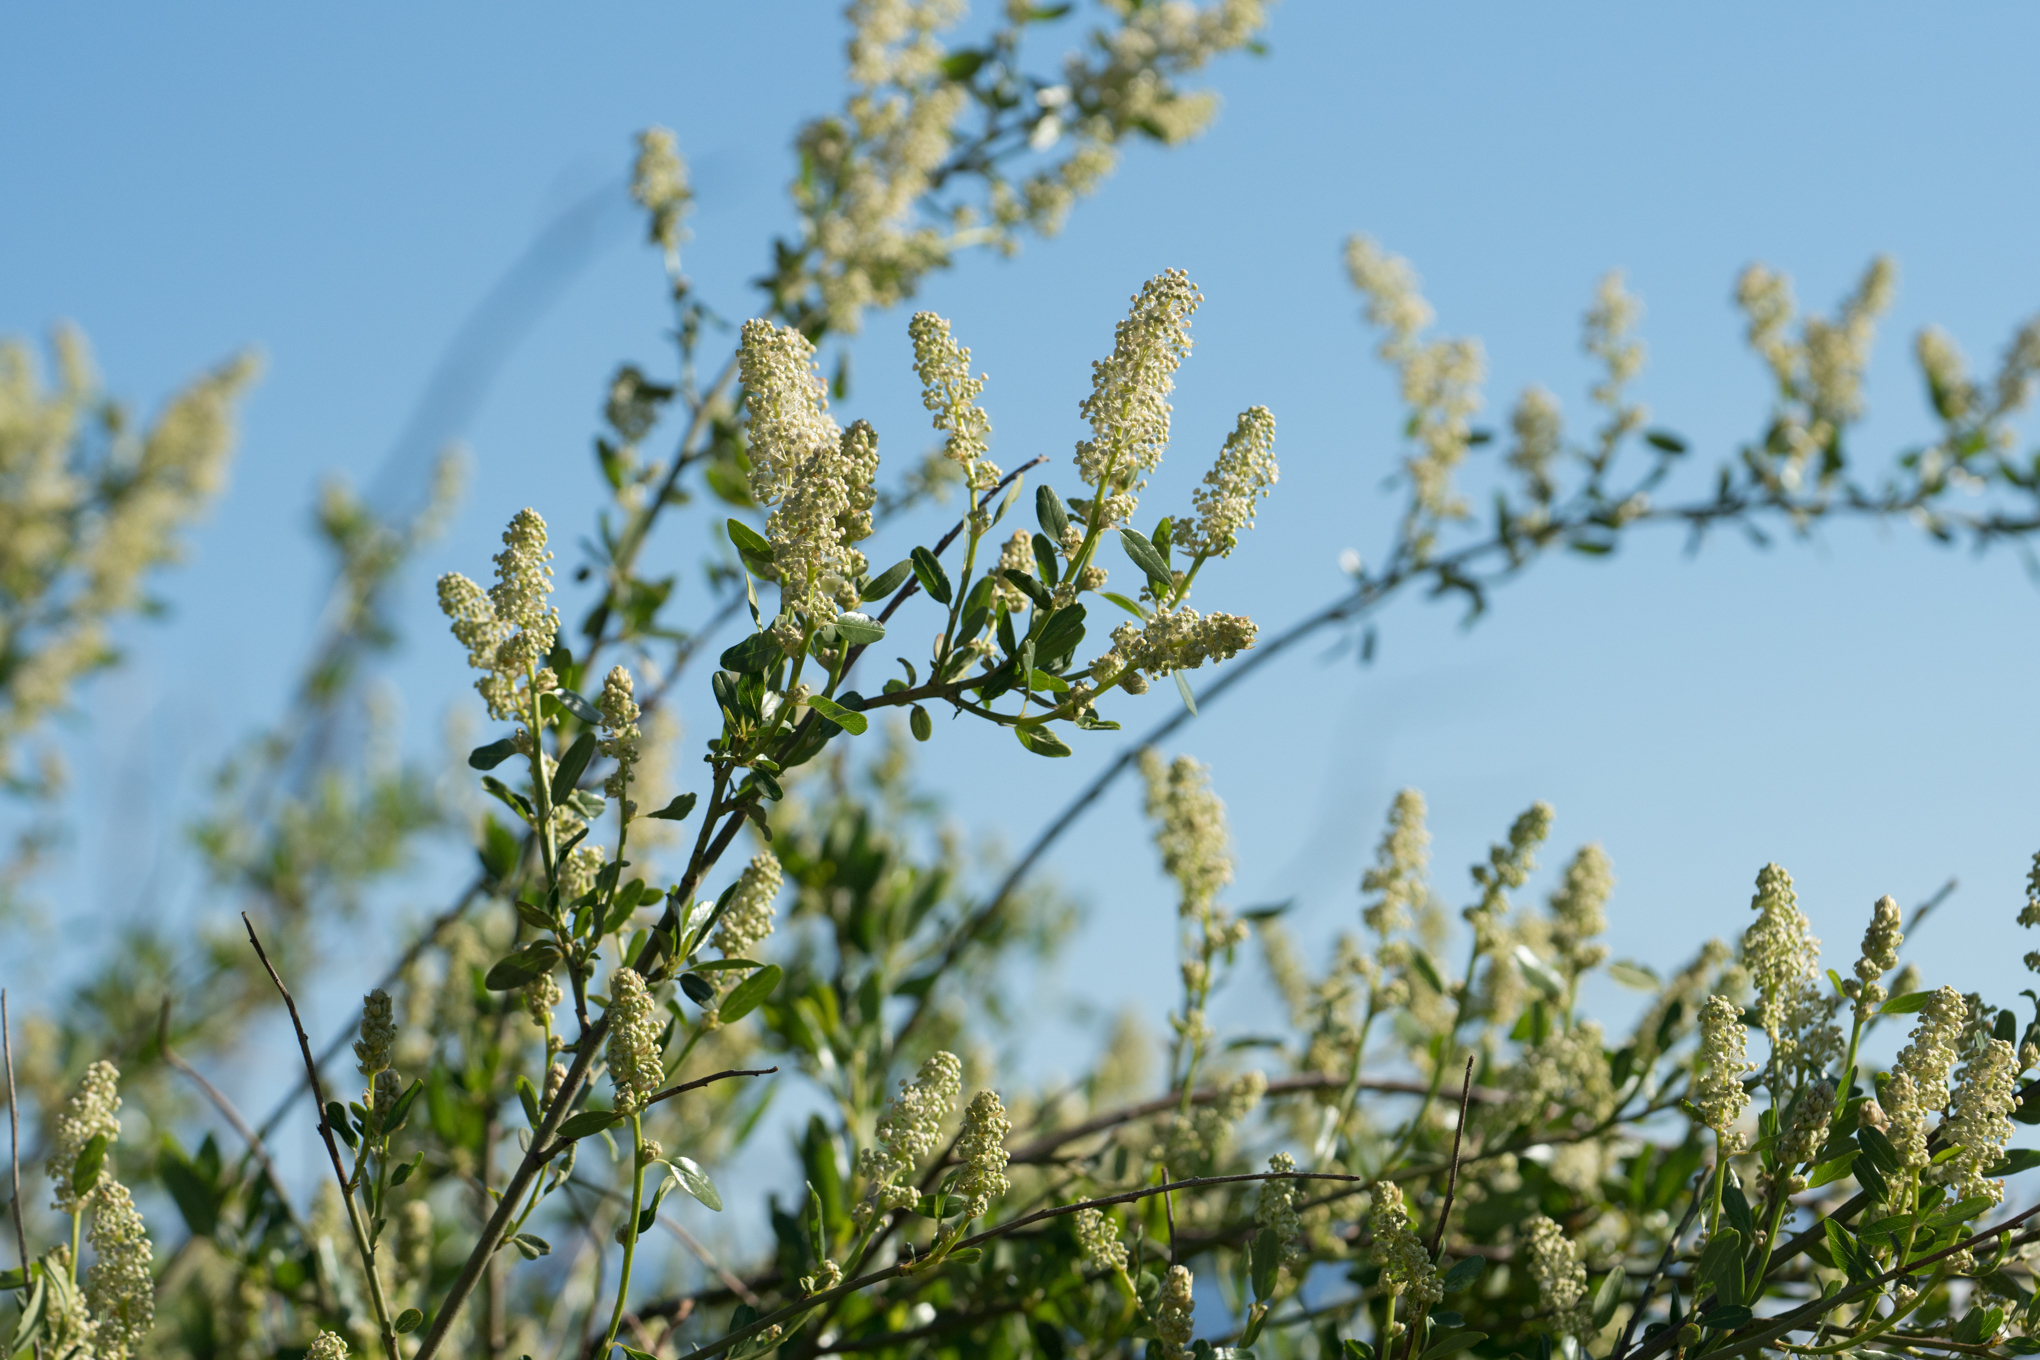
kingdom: Plantae
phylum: Tracheophyta
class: Magnoliopsida
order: Rosales
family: Rhamnaceae
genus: Ceanothus
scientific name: Ceanothus palmeri
